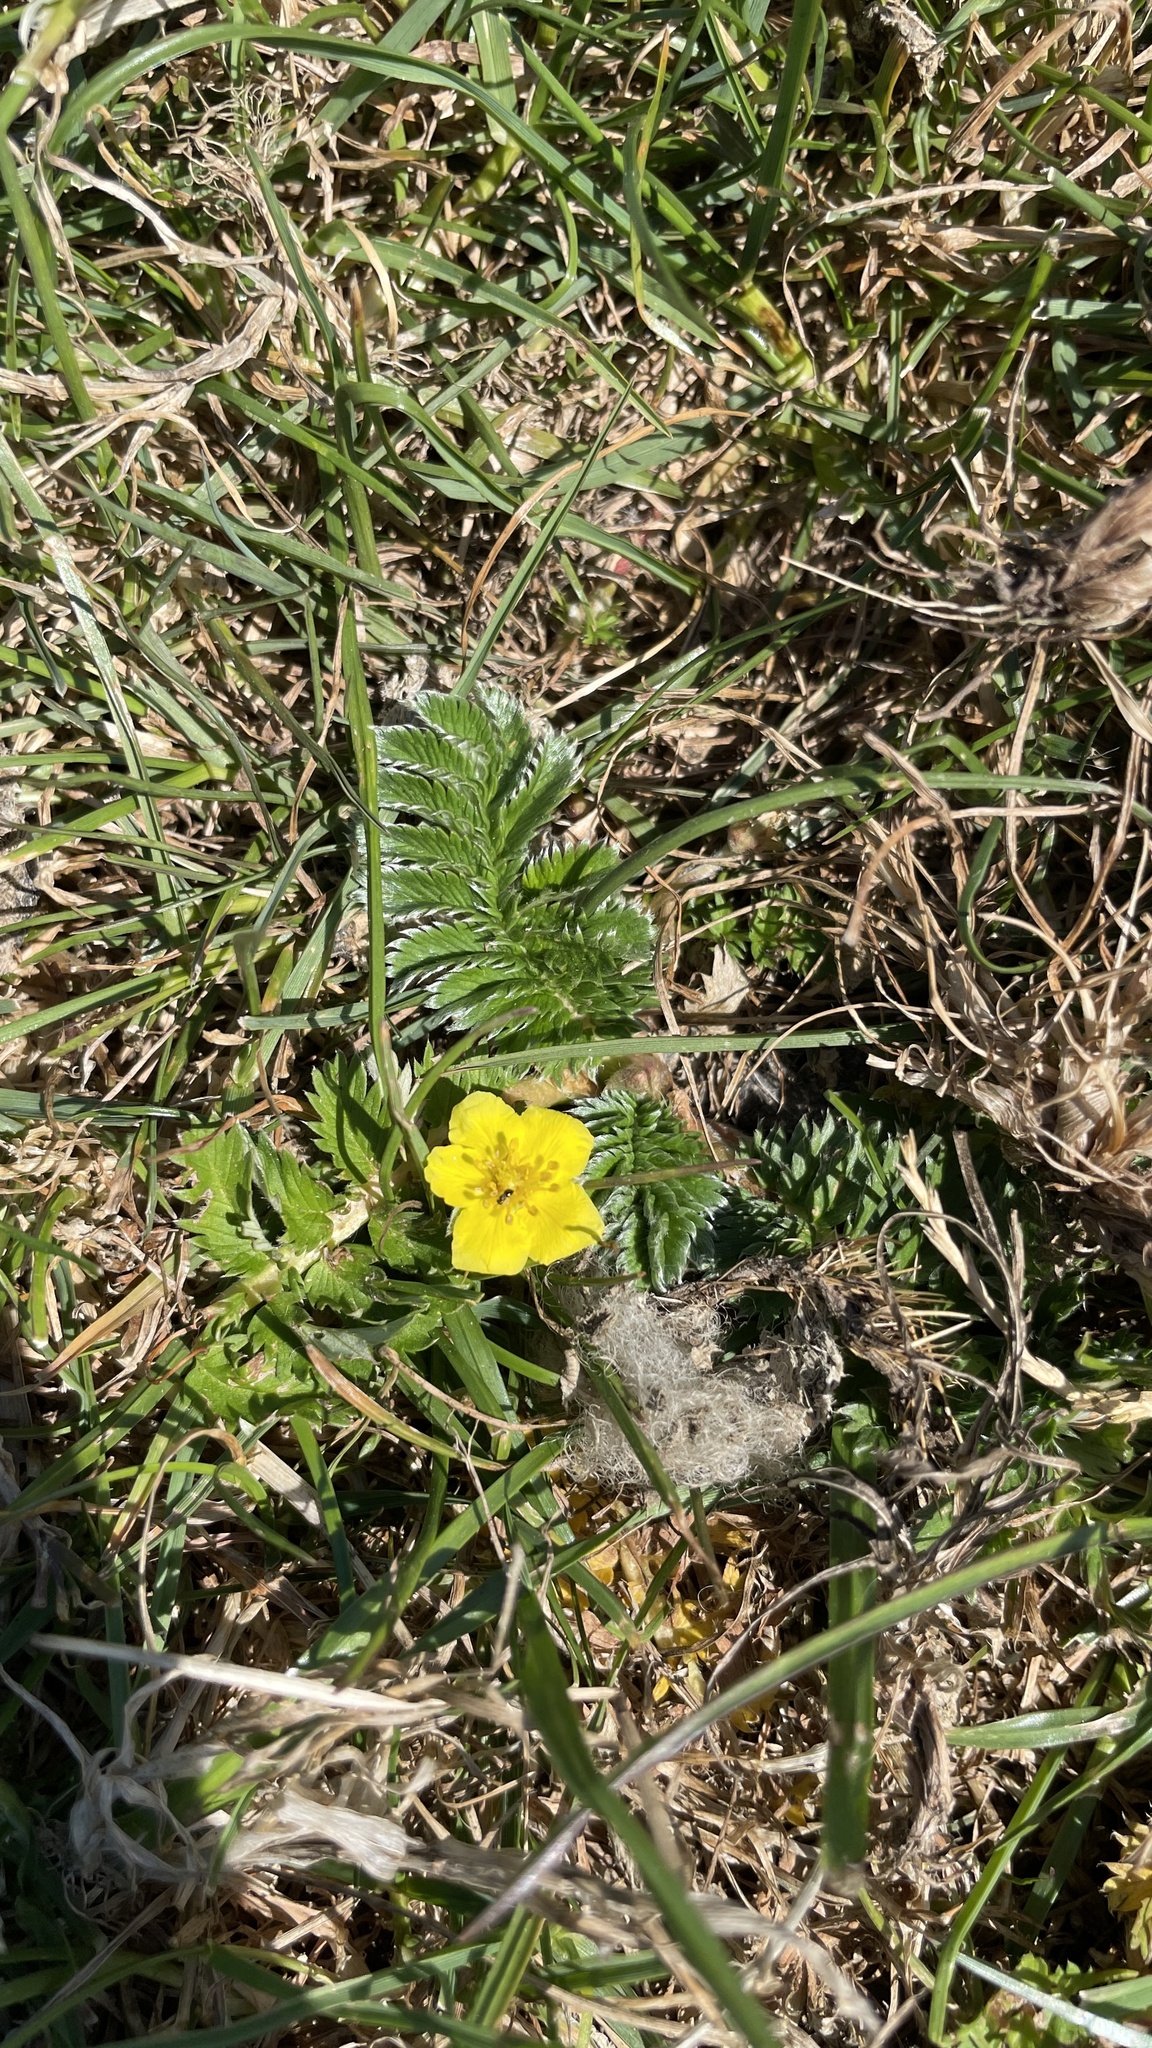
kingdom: Plantae
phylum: Tracheophyta
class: Magnoliopsida
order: Rosales
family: Rosaceae
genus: Argentina
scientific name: Argentina anserina
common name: Common silverweed
